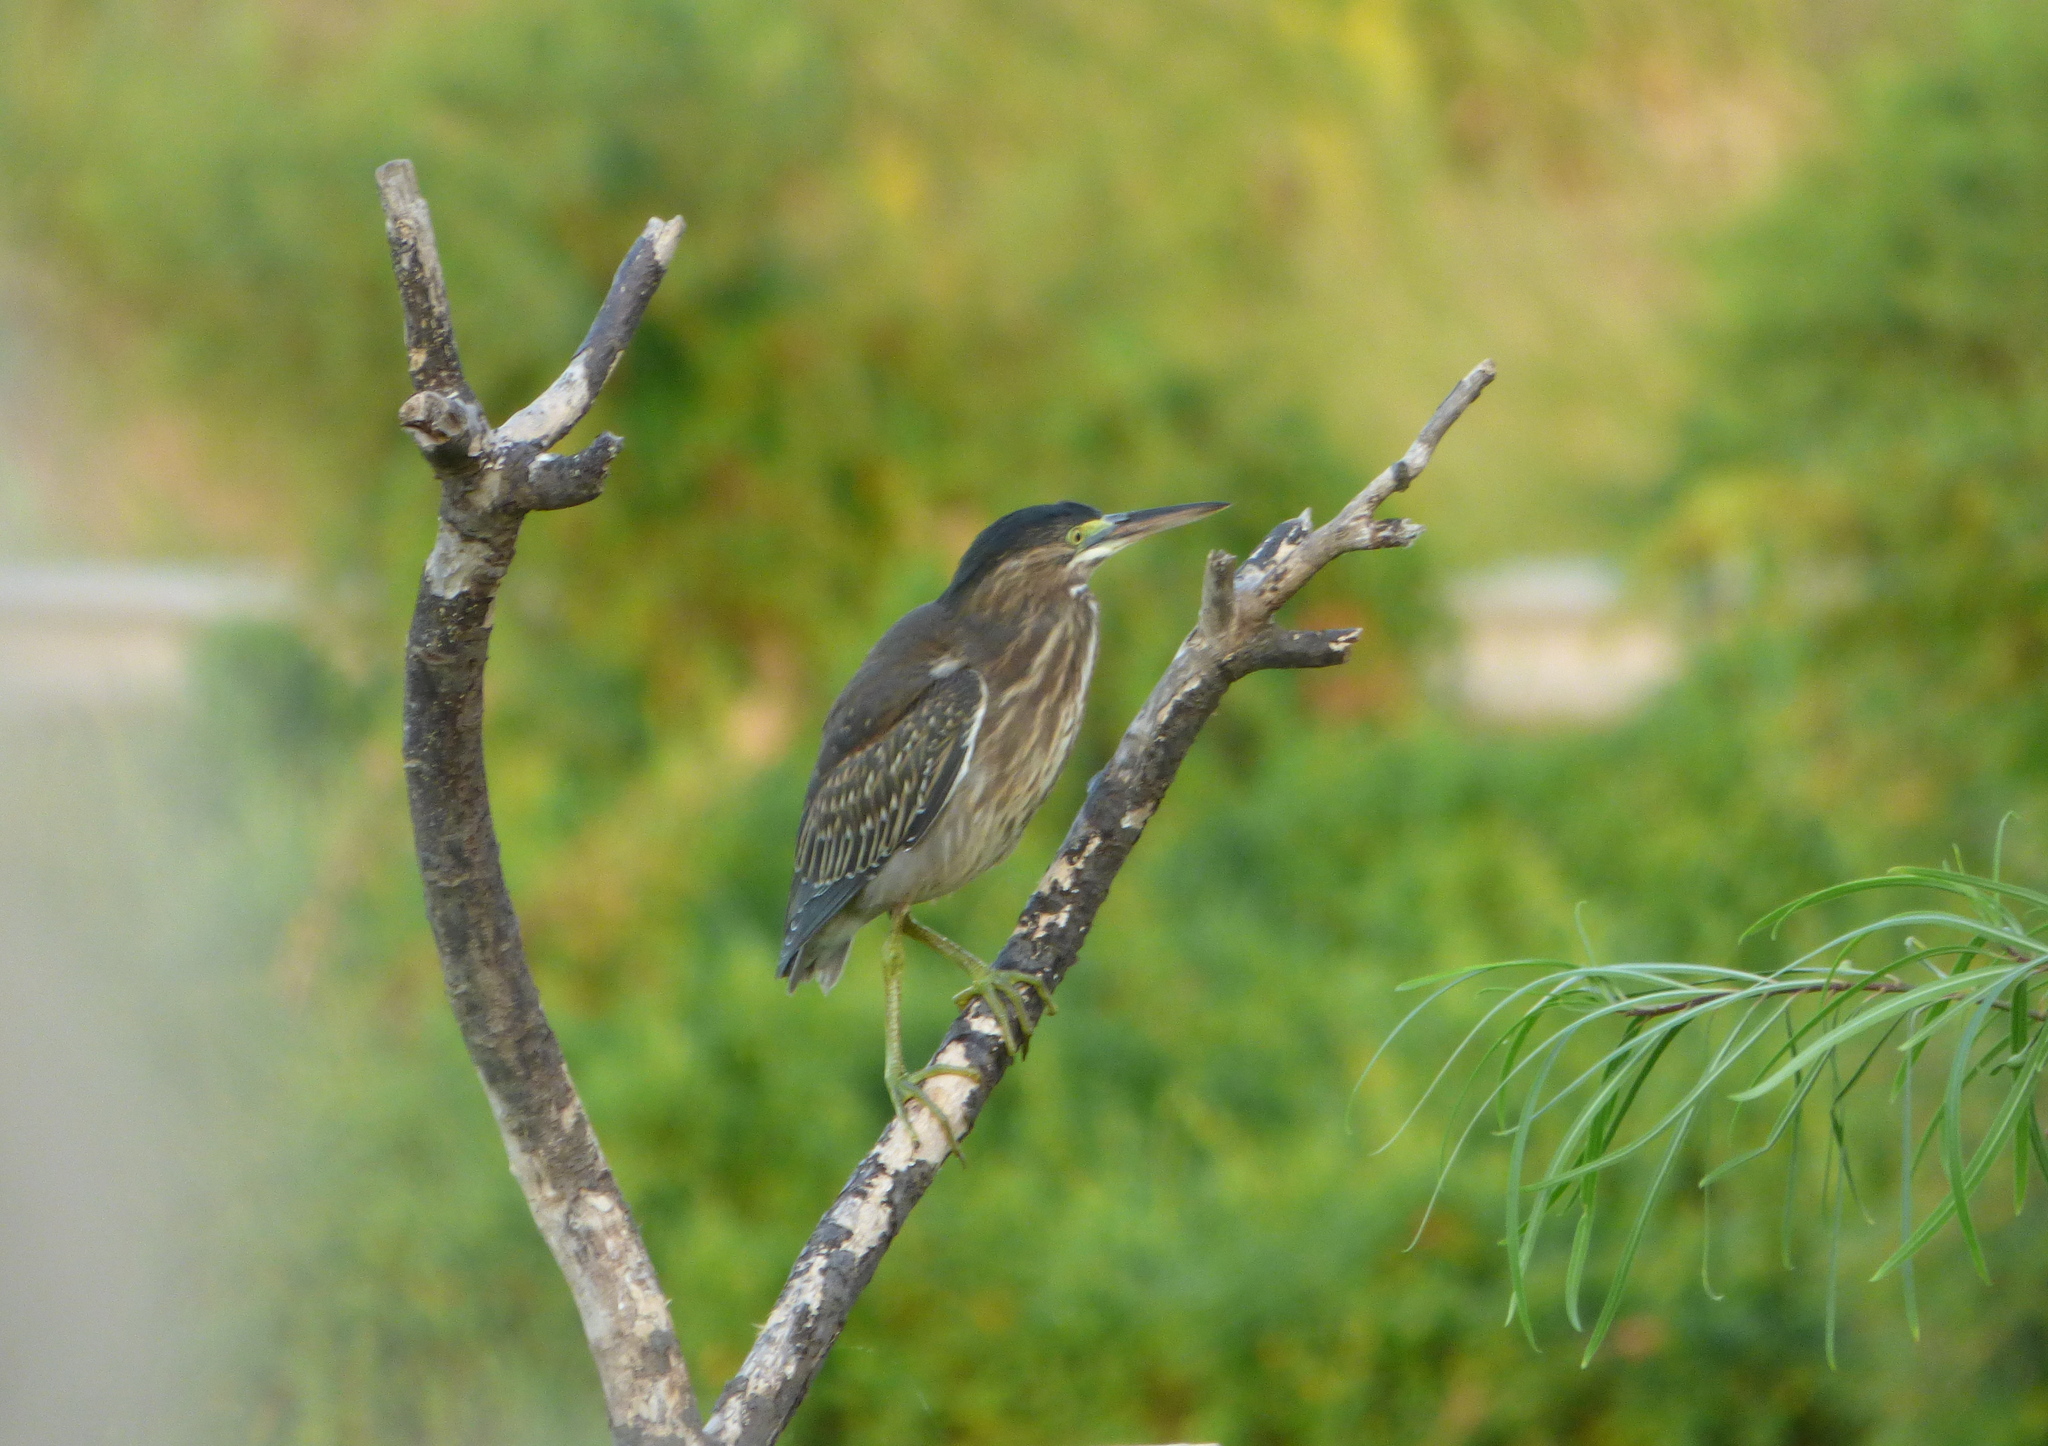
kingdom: Animalia
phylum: Chordata
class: Aves
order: Pelecaniformes
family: Ardeidae
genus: Butorides
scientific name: Butorides striata
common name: Striated heron
